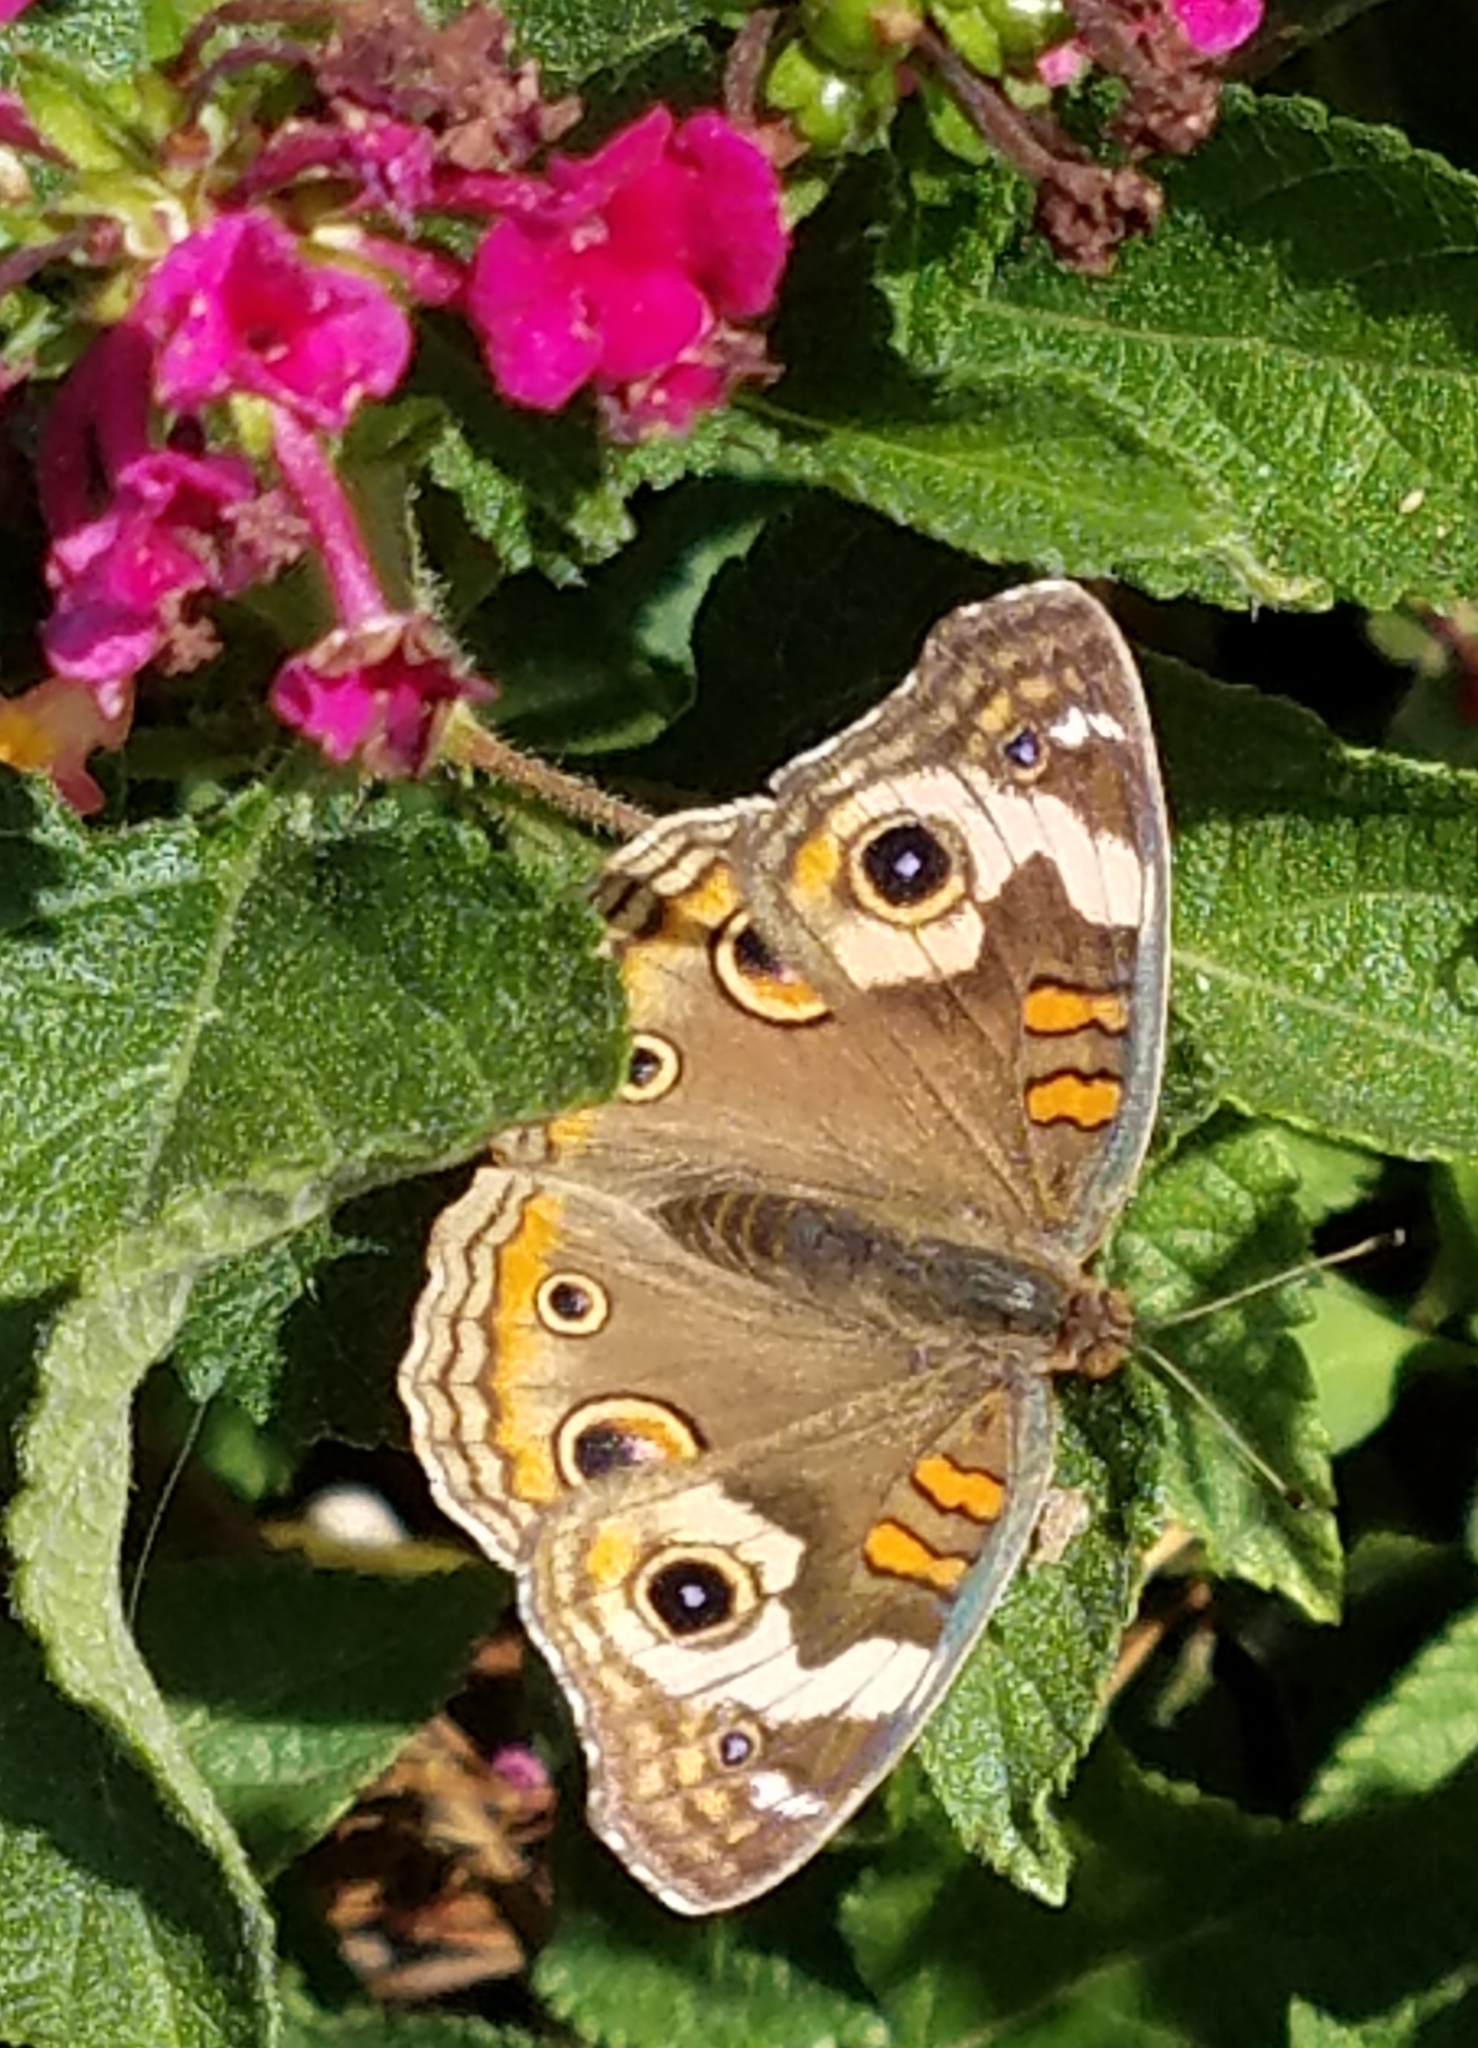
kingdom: Animalia
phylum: Arthropoda
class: Insecta
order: Lepidoptera
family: Nymphalidae
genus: Junonia
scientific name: Junonia grisea
